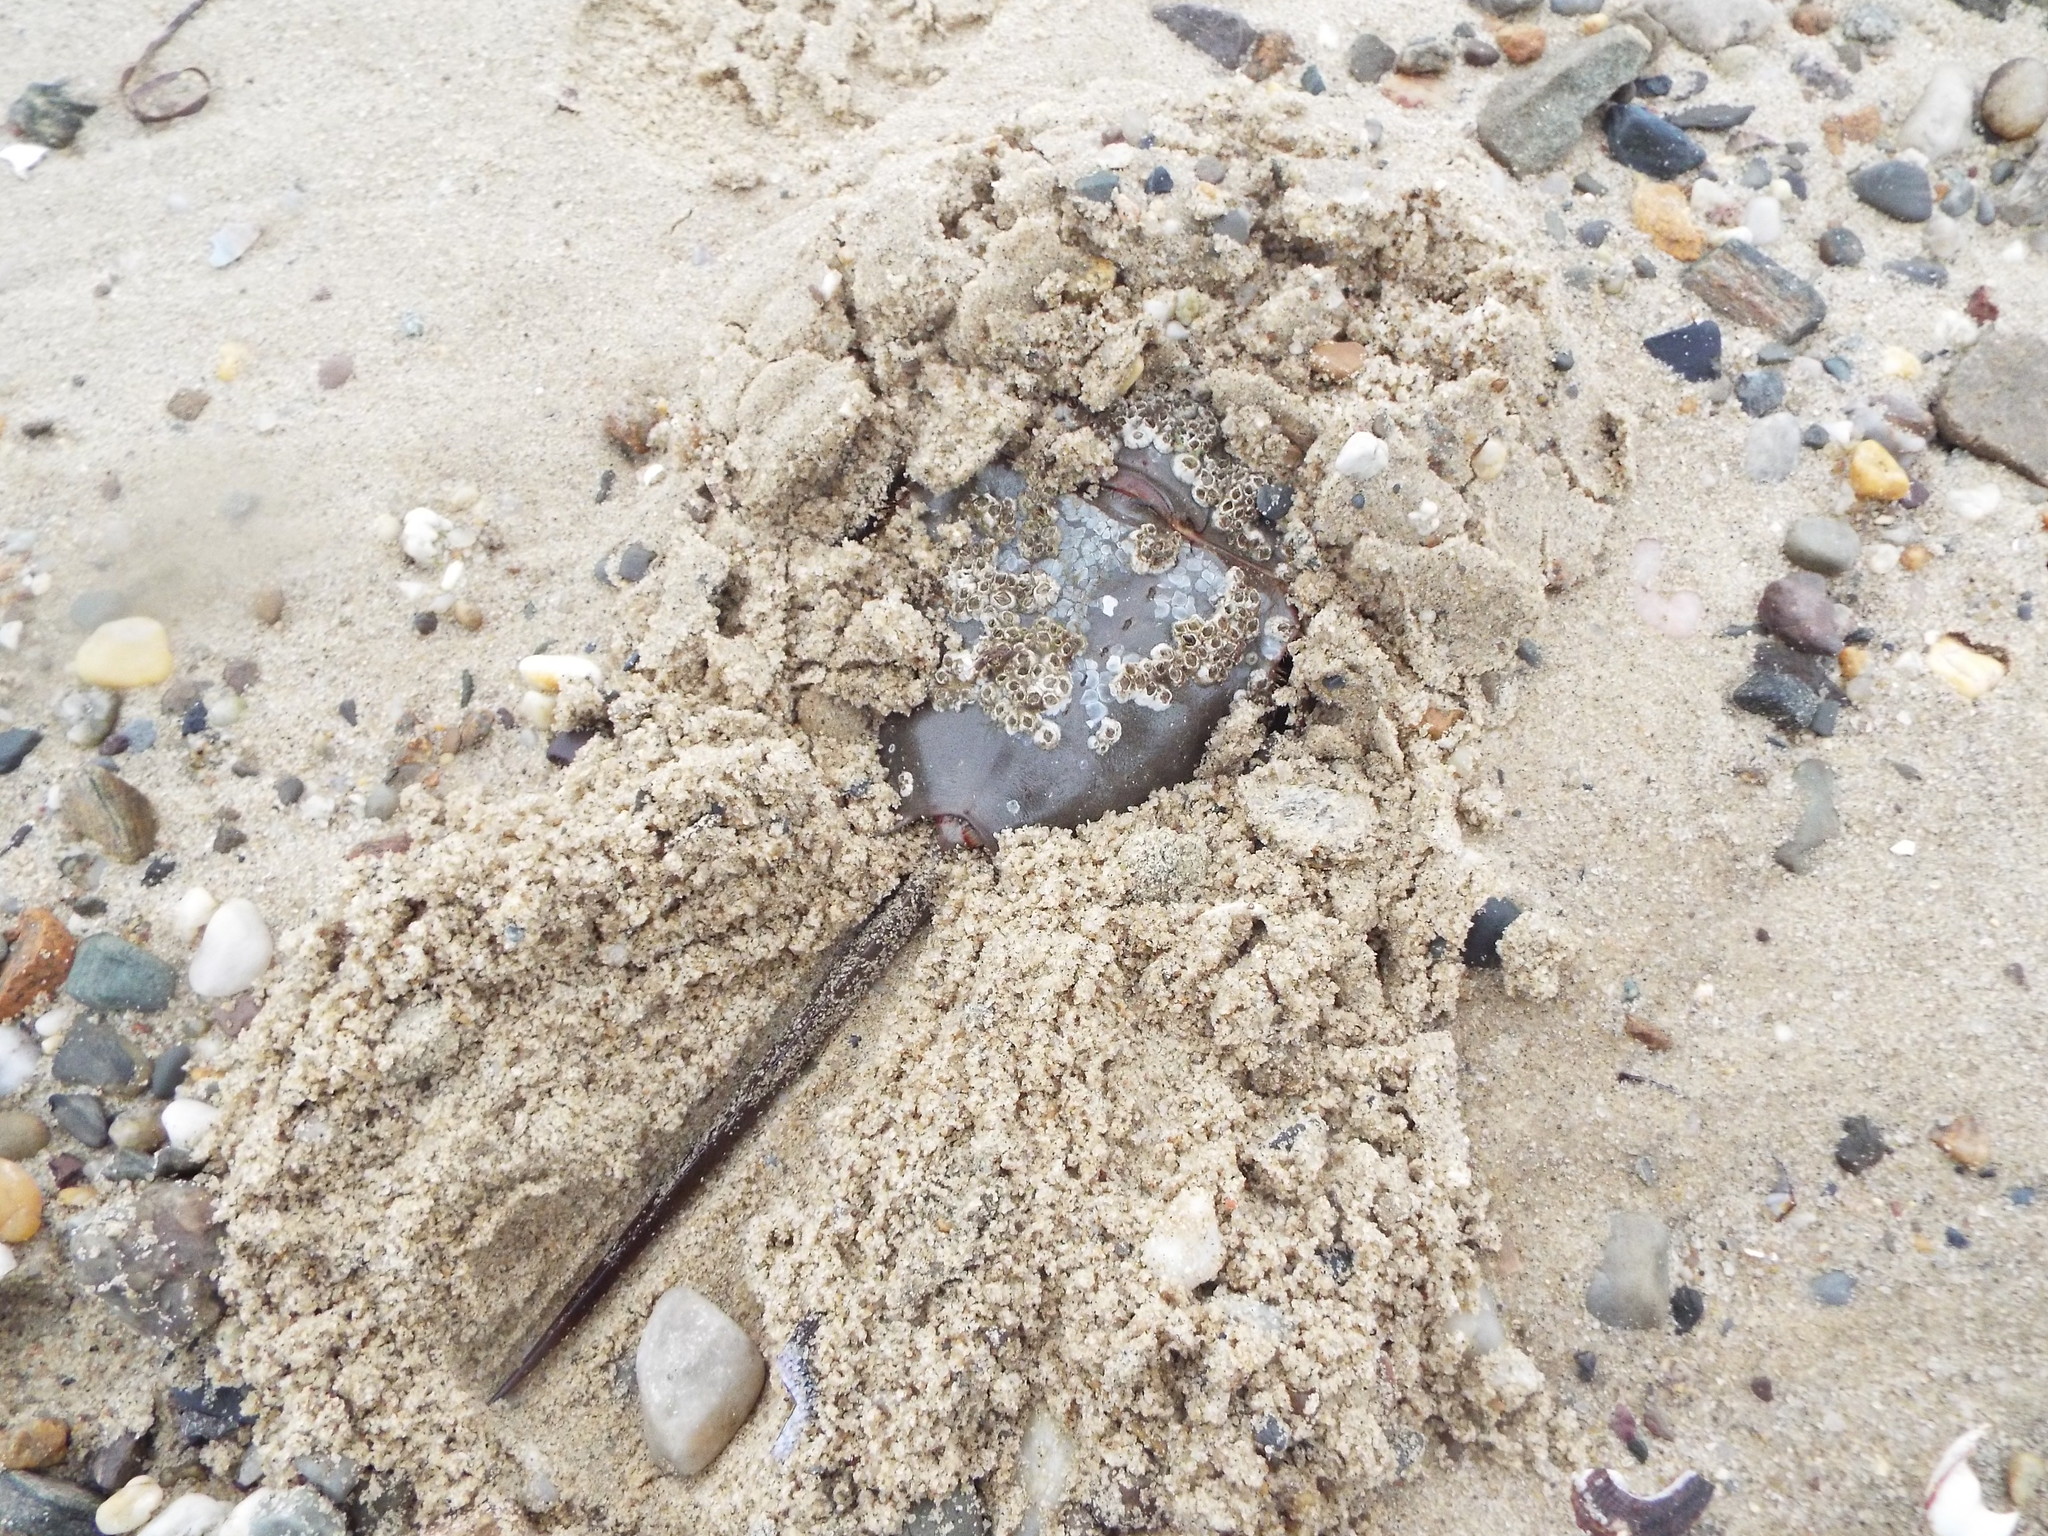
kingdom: Animalia
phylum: Arthropoda
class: Merostomata
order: Xiphosurida
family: Limulidae
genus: Limulus
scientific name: Limulus polyphemus
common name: Horseshoe crab
